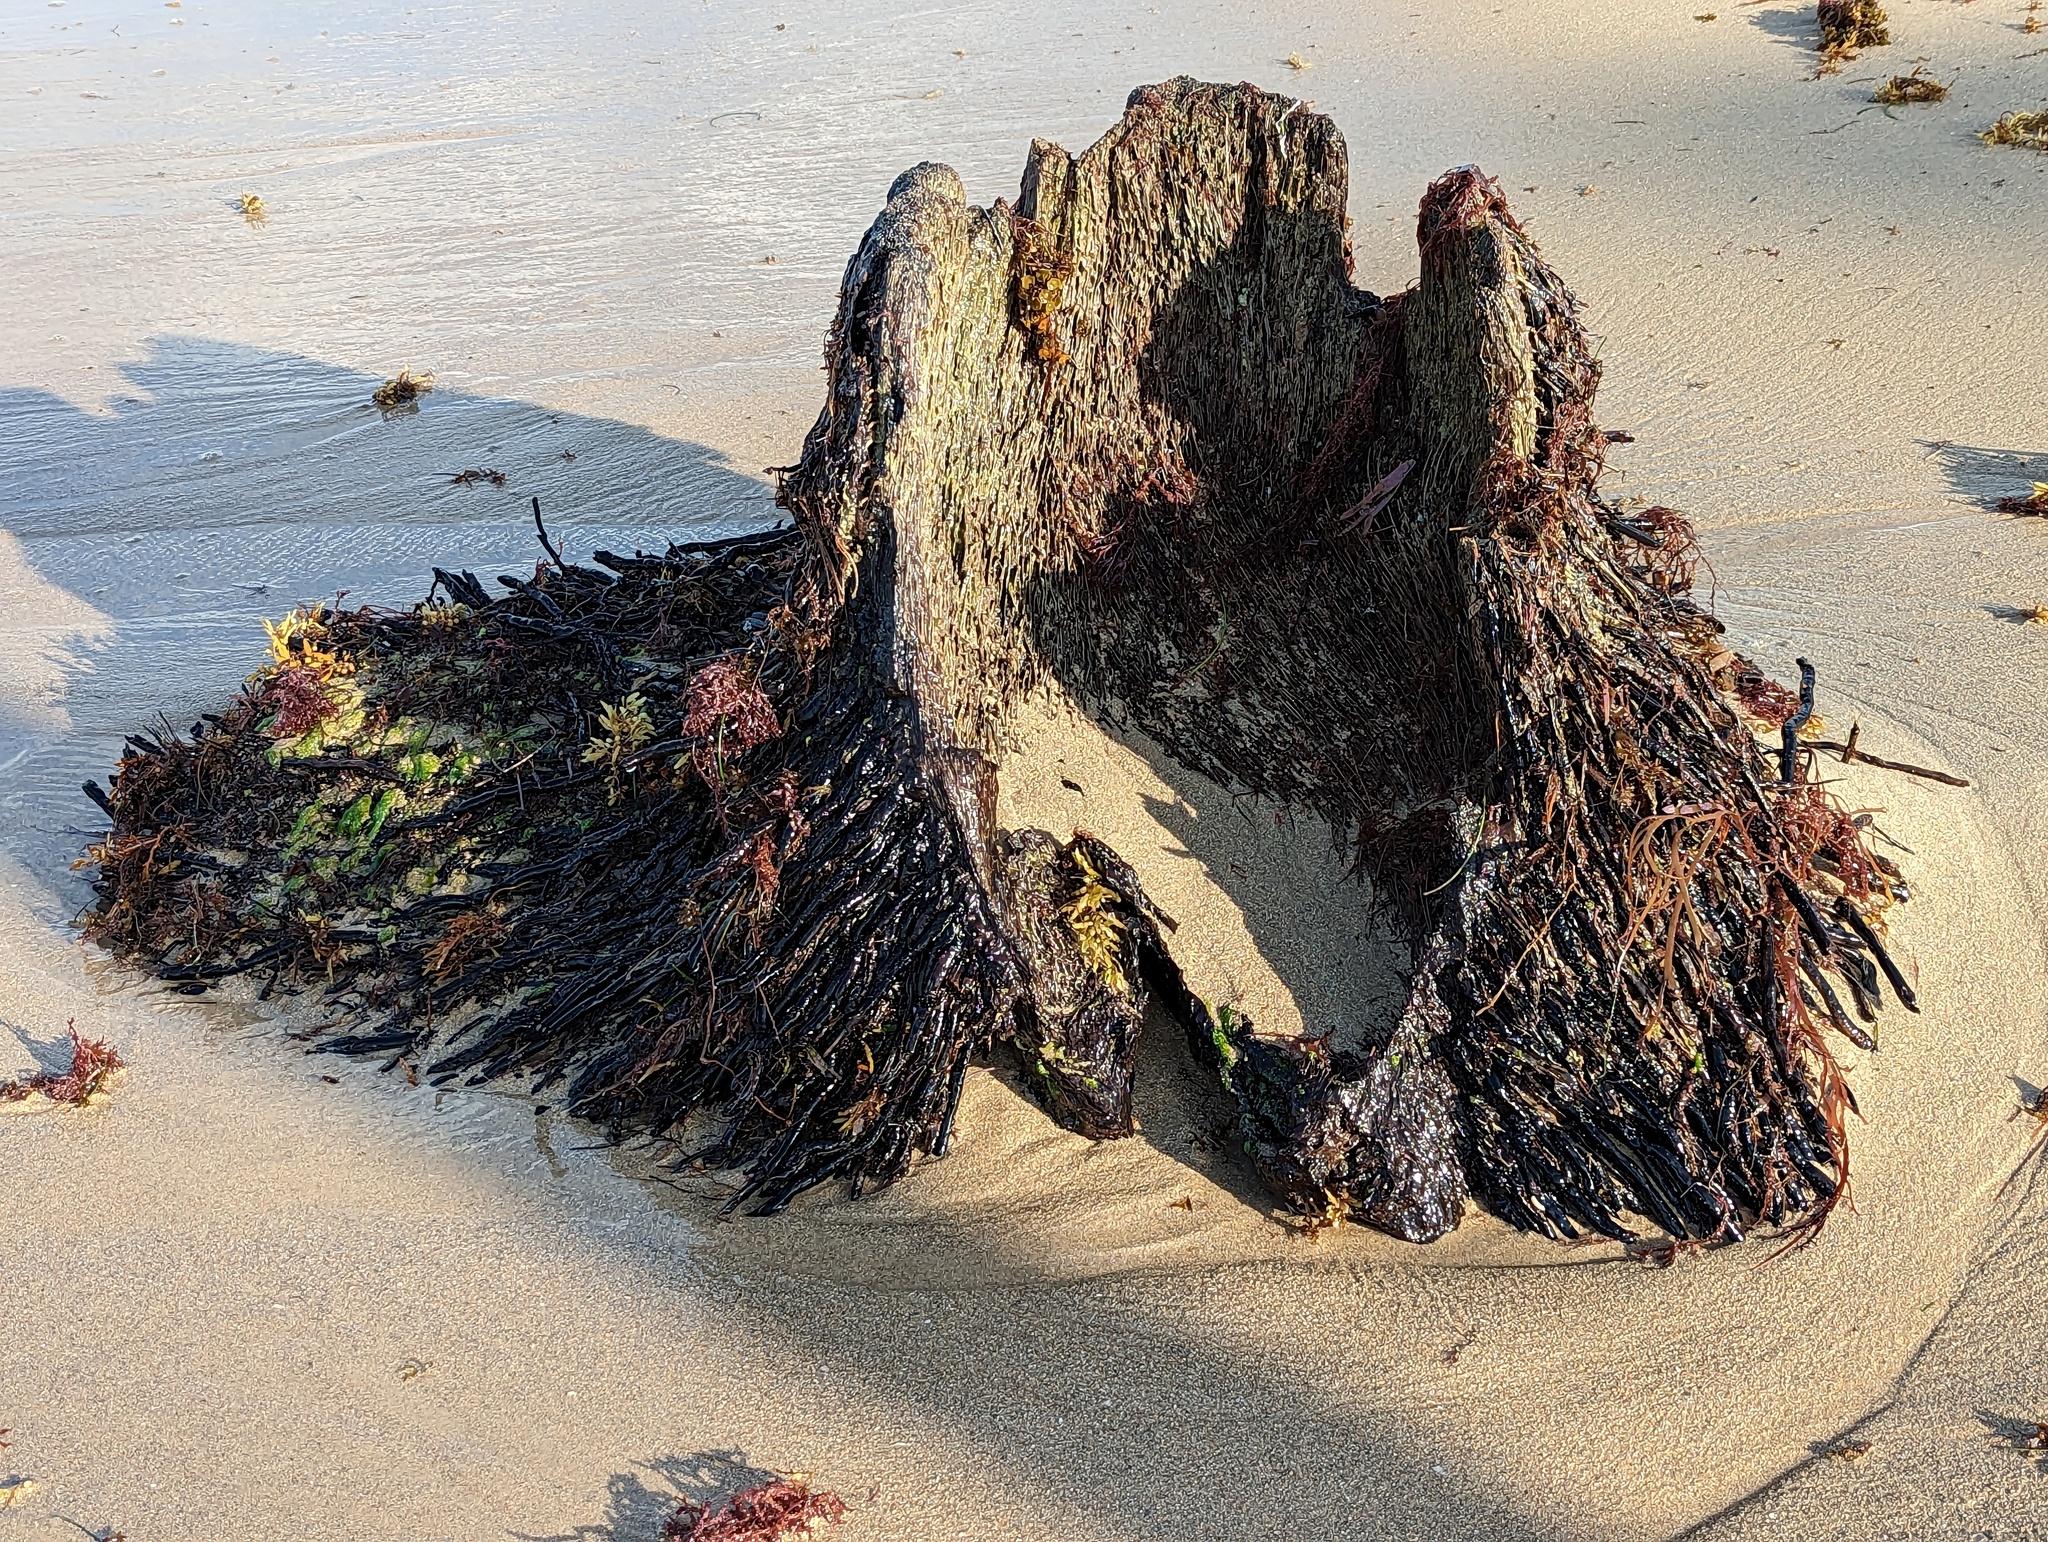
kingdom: Plantae
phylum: Tracheophyta
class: Liliopsida
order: Arecales
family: Arecaceae
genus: Cocos
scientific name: Cocos nucifera
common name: Coconut palm
